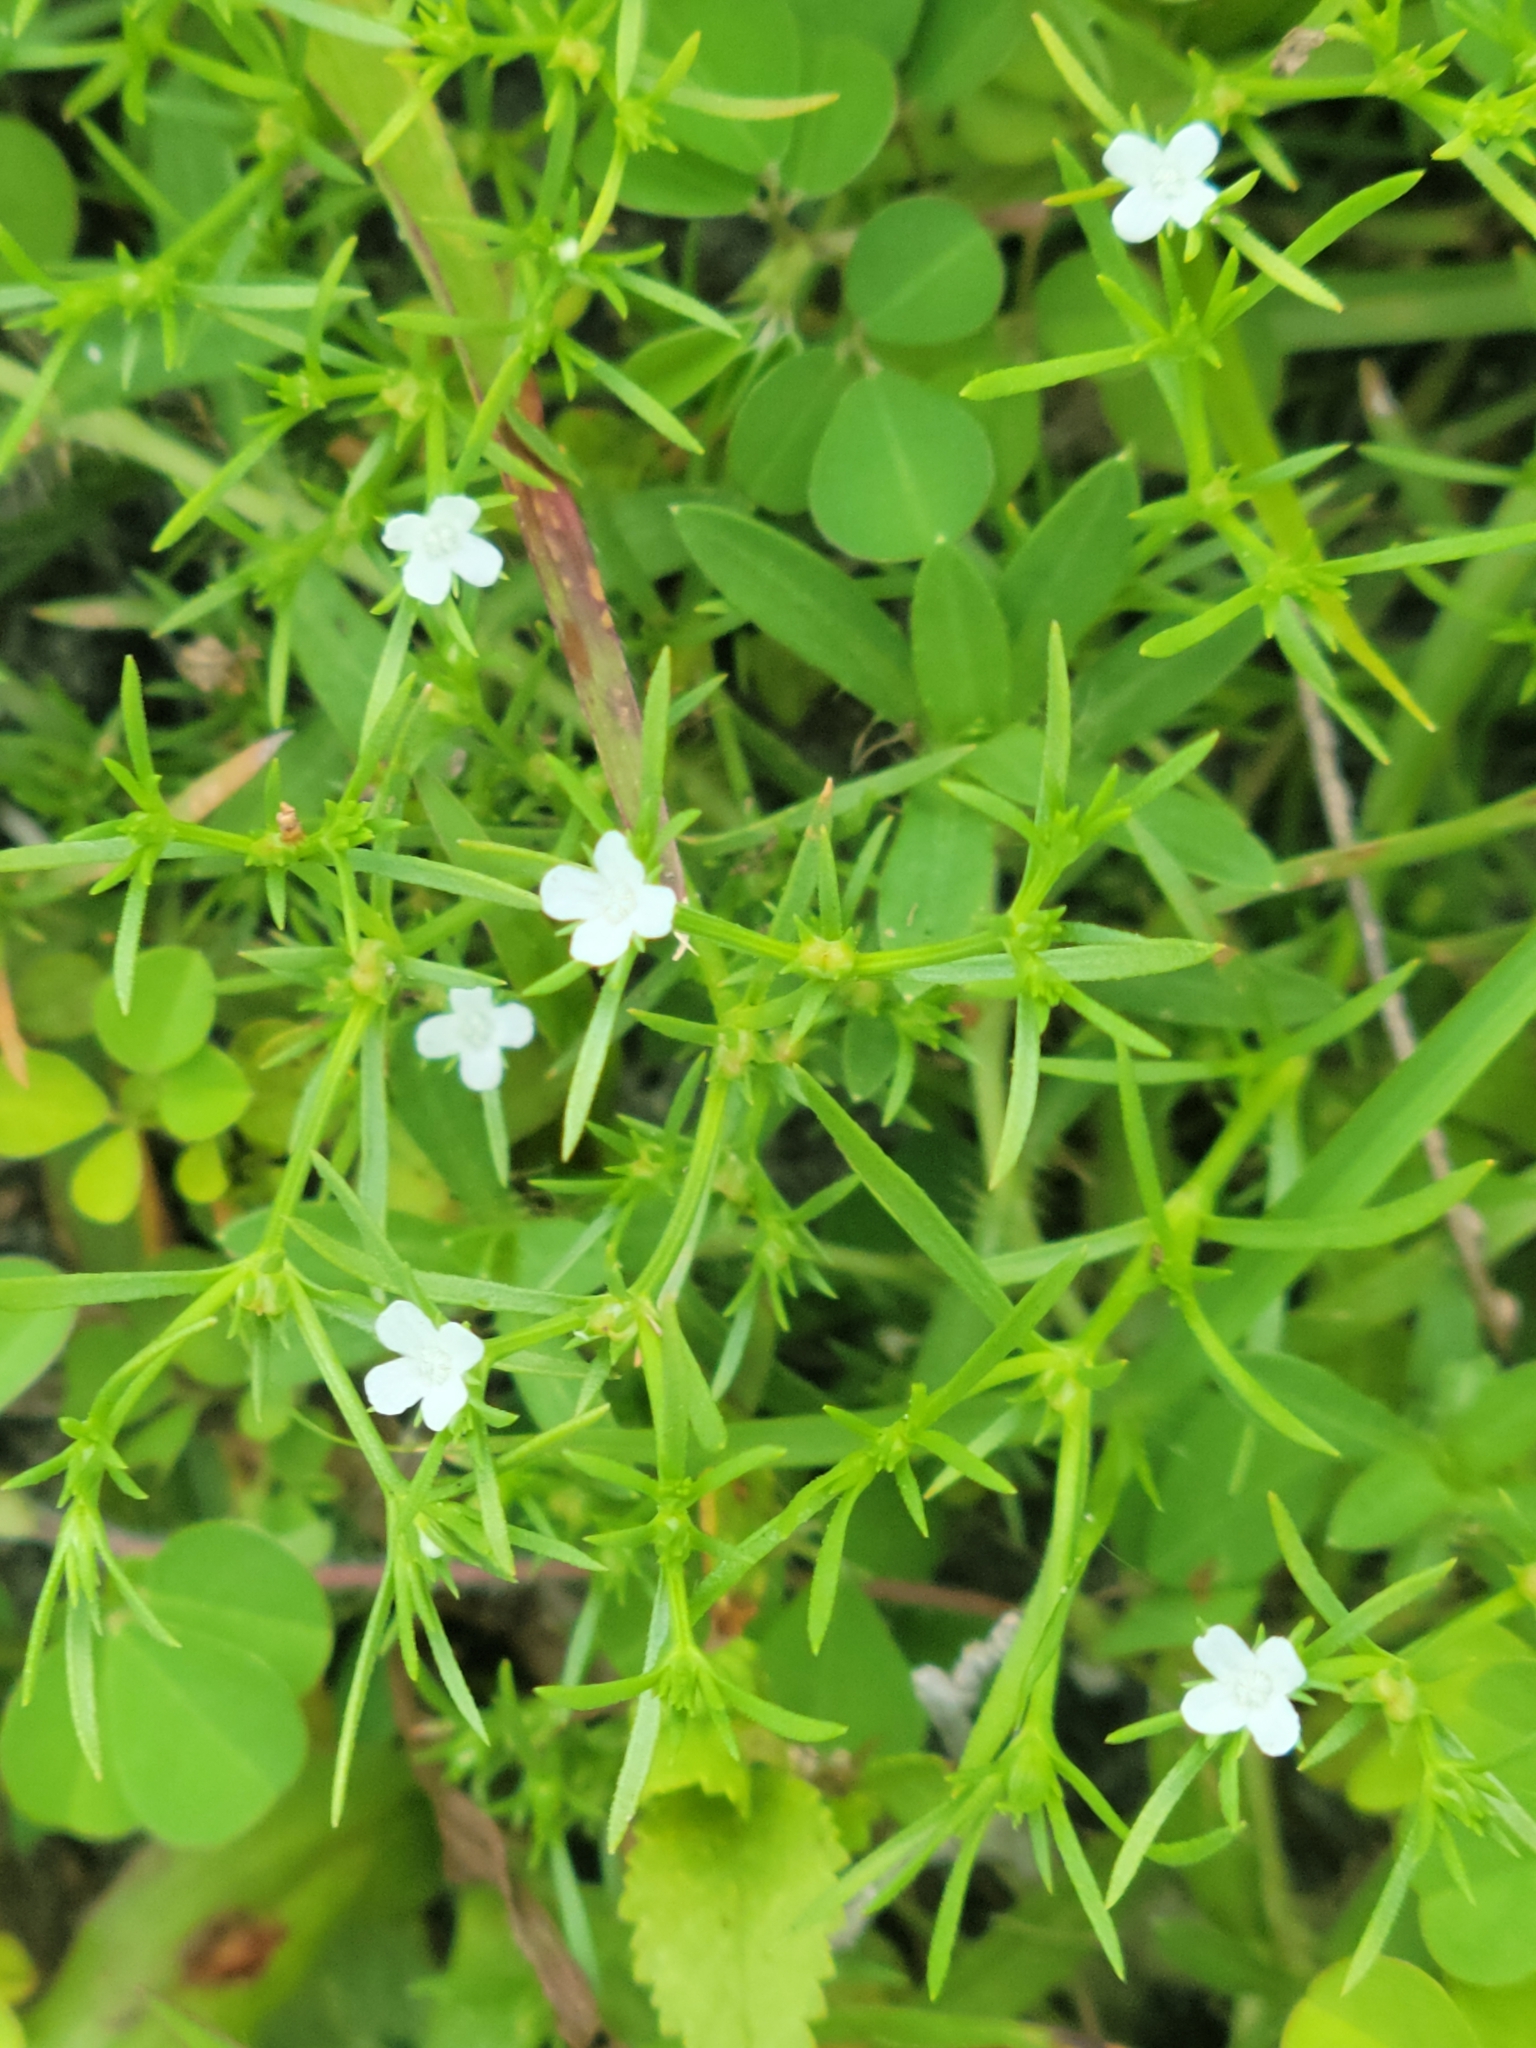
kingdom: Plantae
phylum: Tracheophyta
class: Magnoliopsida
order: Lamiales
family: Tetrachondraceae
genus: Polypremum
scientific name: Polypremum procumbens
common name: Juniper-leaf
